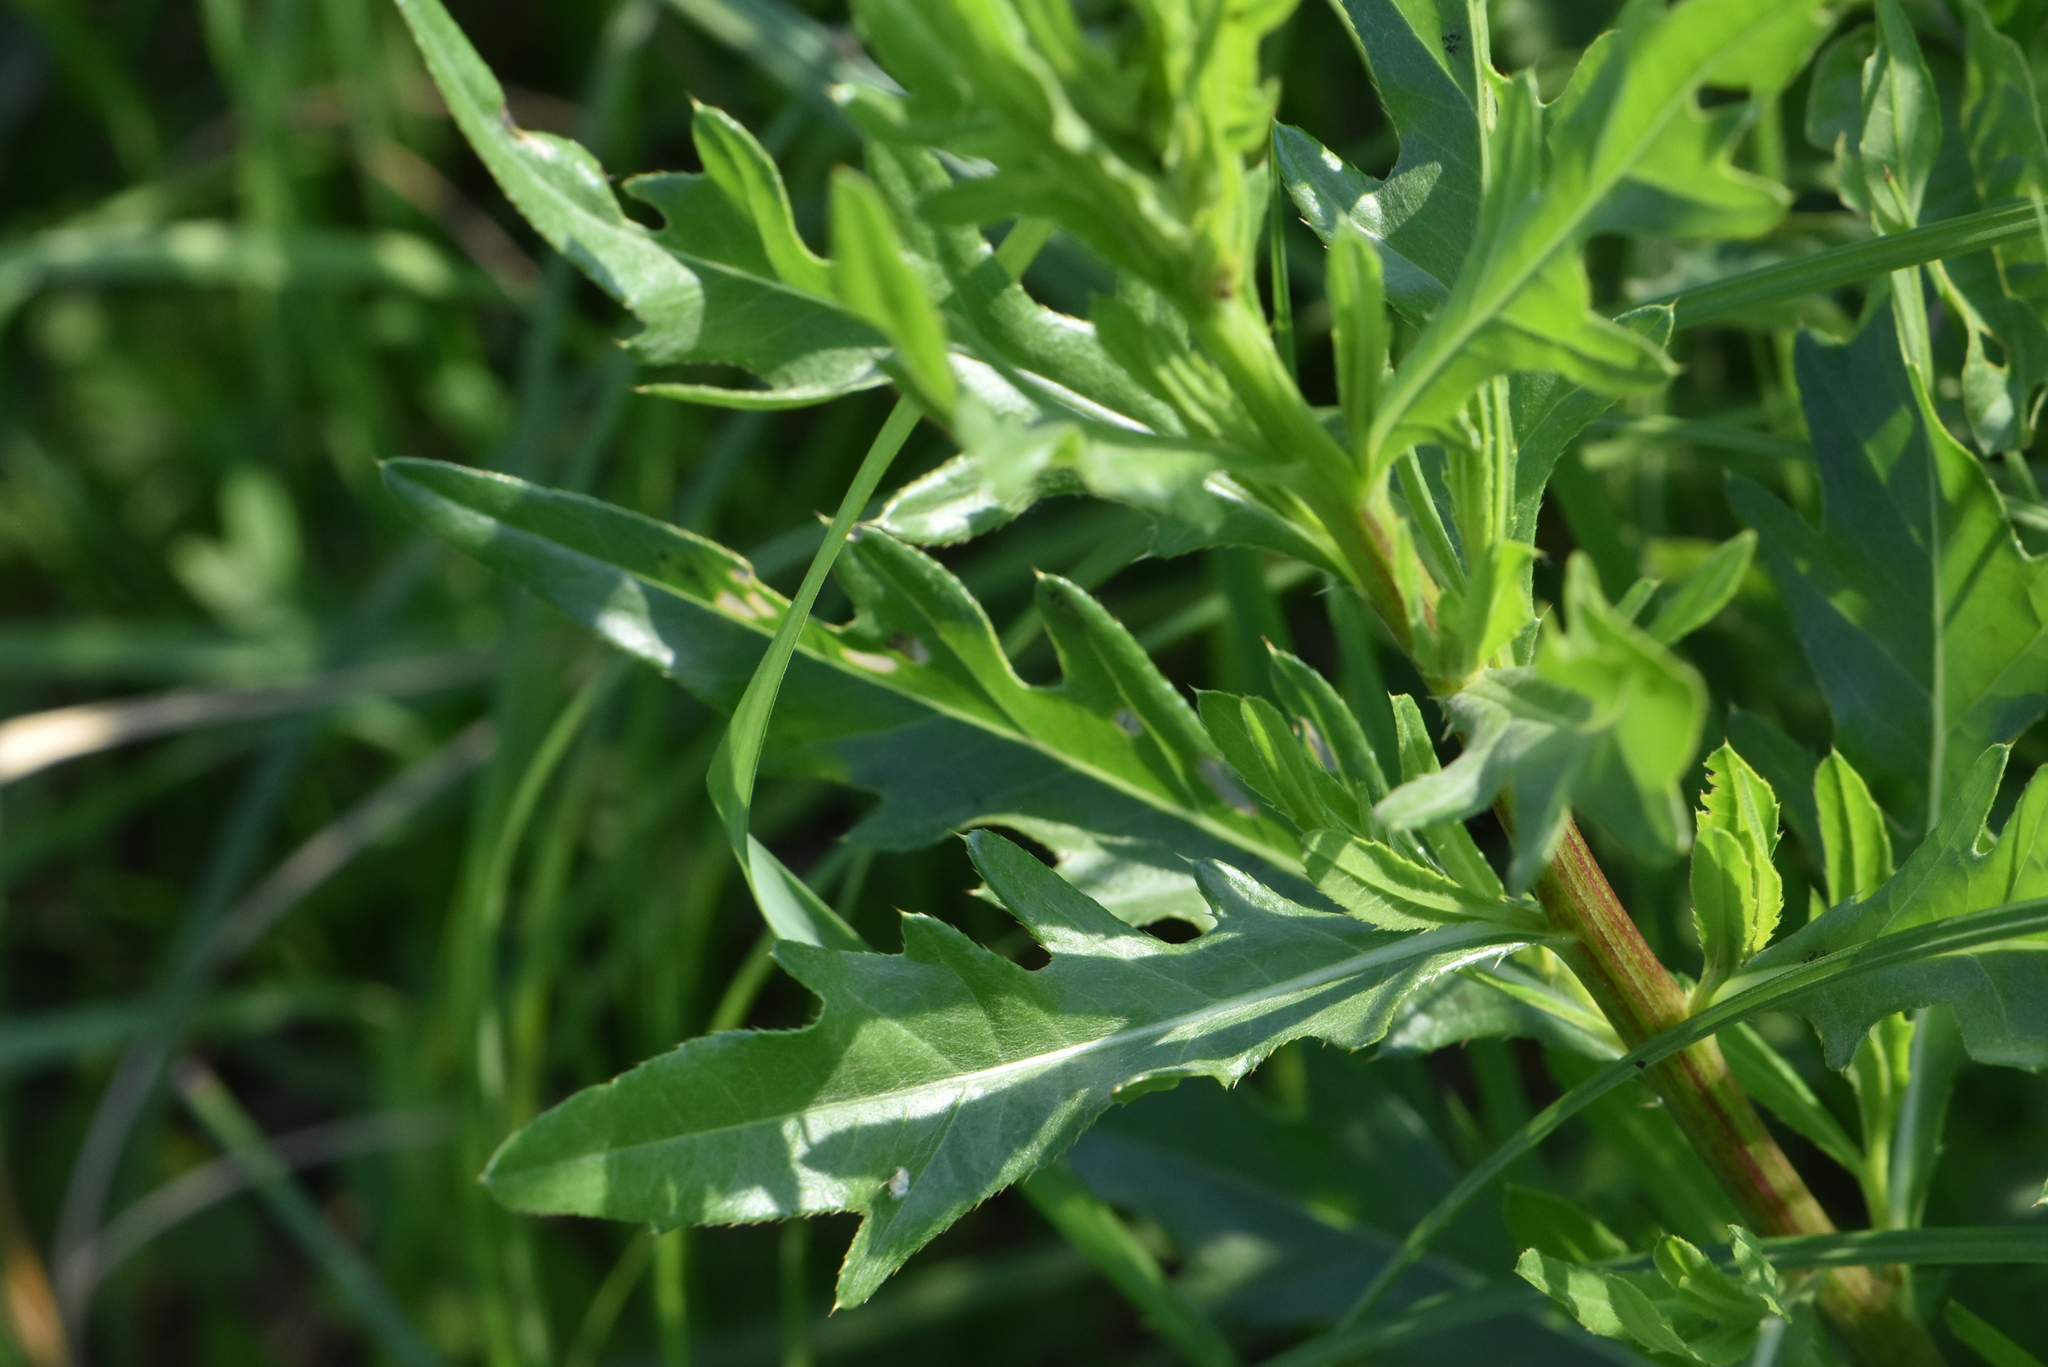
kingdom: Plantae
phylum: Tracheophyta
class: Magnoliopsida
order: Asterales
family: Asteraceae
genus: Cirsium
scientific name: Cirsium arvense
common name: Creeping thistle
